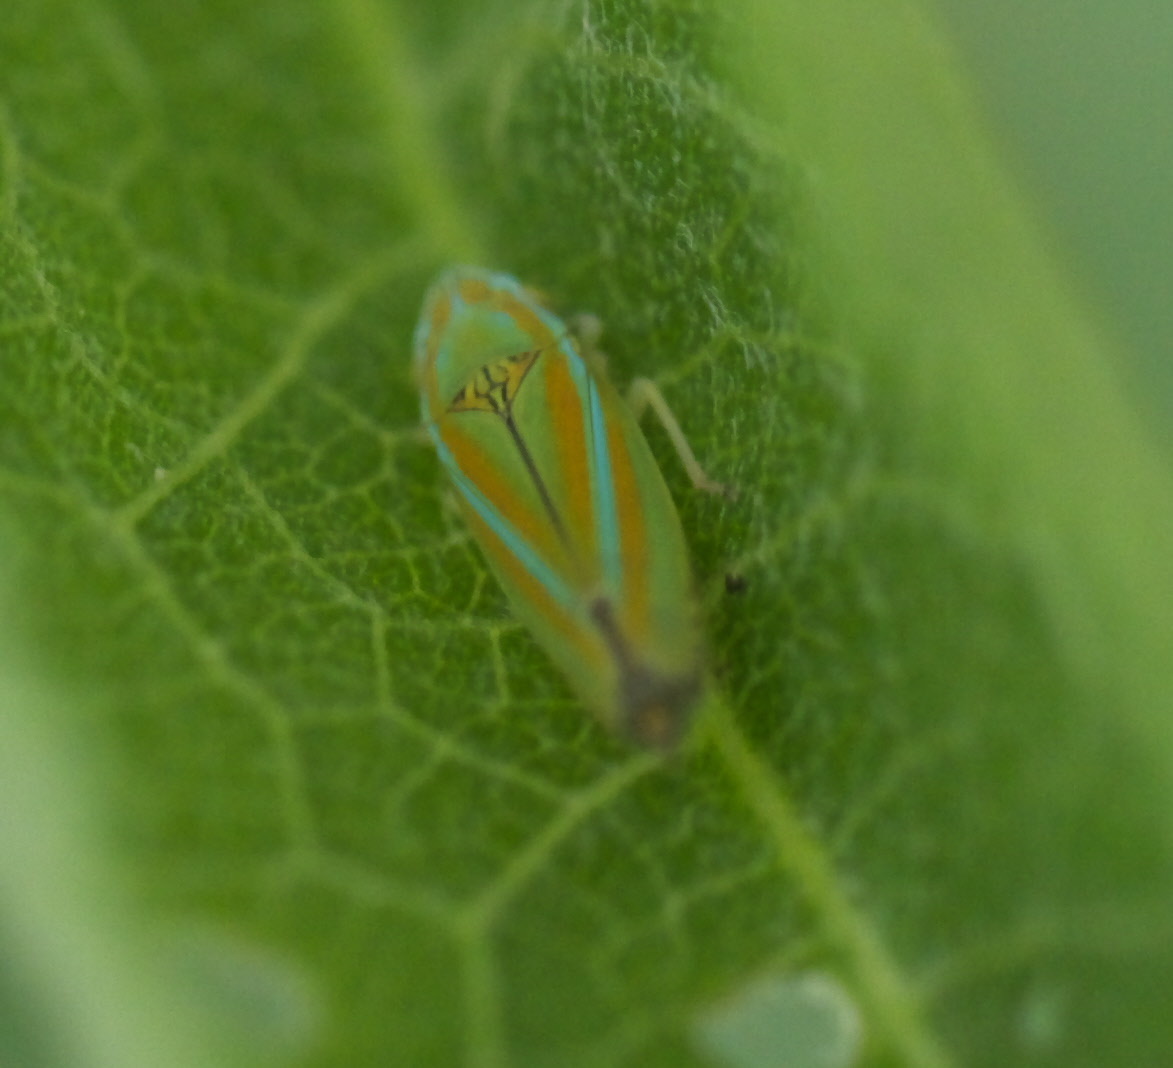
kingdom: Animalia
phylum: Arthropoda
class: Insecta
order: Hemiptera
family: Cicadellidae
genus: Graphocephala
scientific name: Graphocephala versuta
